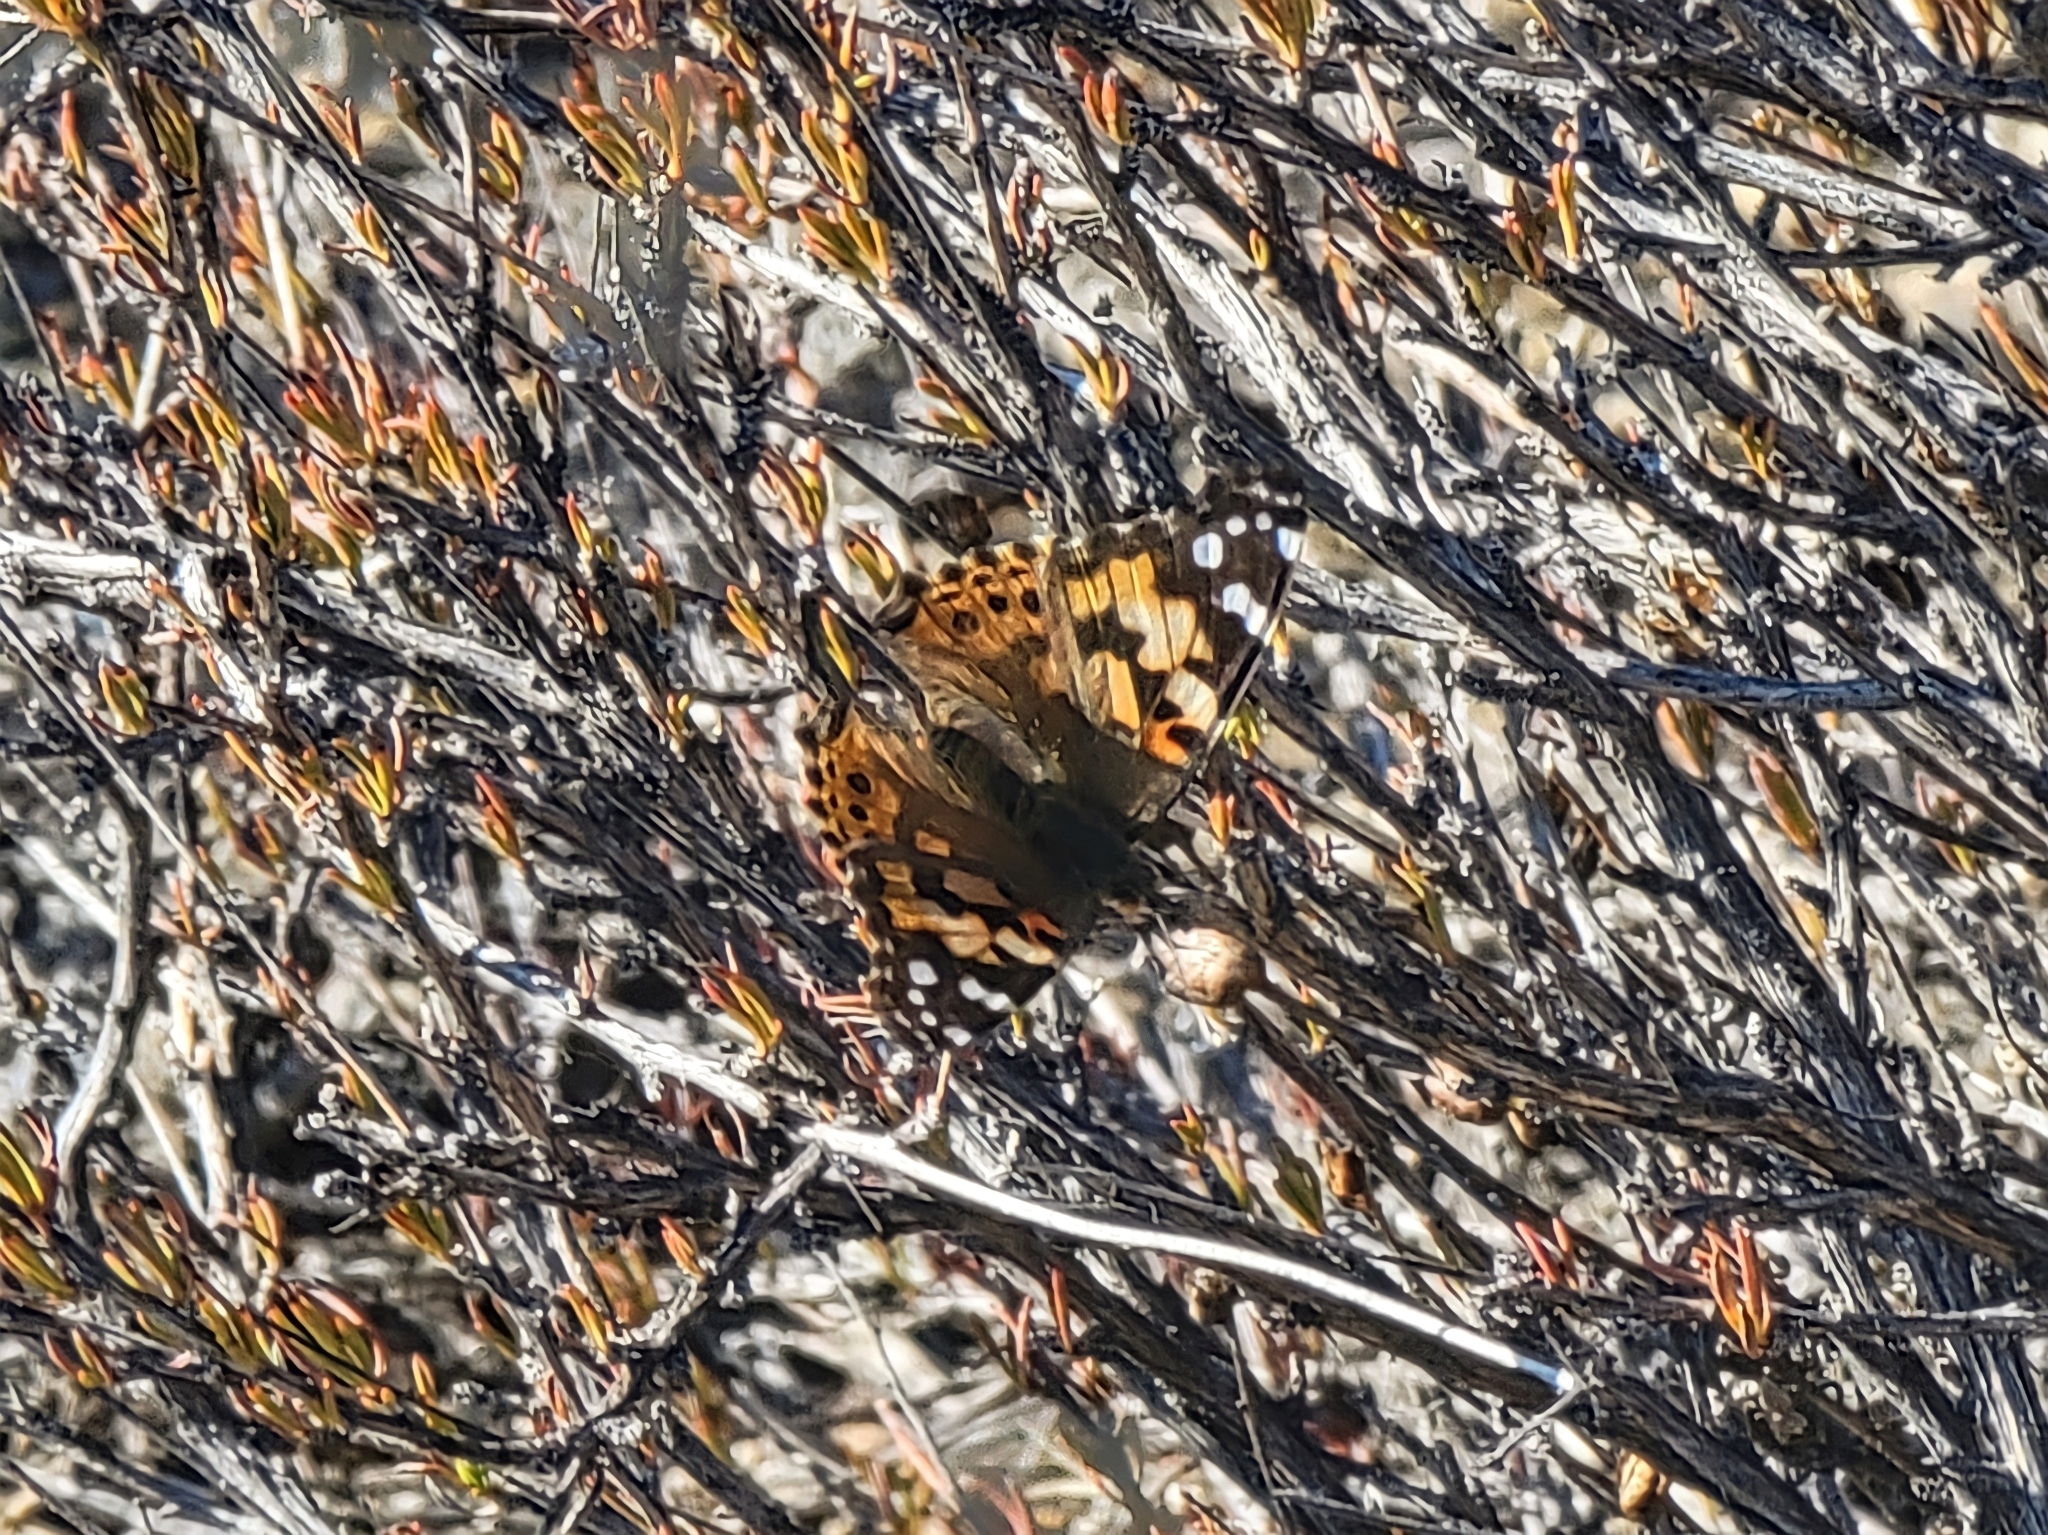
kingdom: Animalia
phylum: Arthropoda
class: Insecta
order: Lepidoptera
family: Nymphalidae
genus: Vanessa
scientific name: Vanessa cardui
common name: Painted lady
